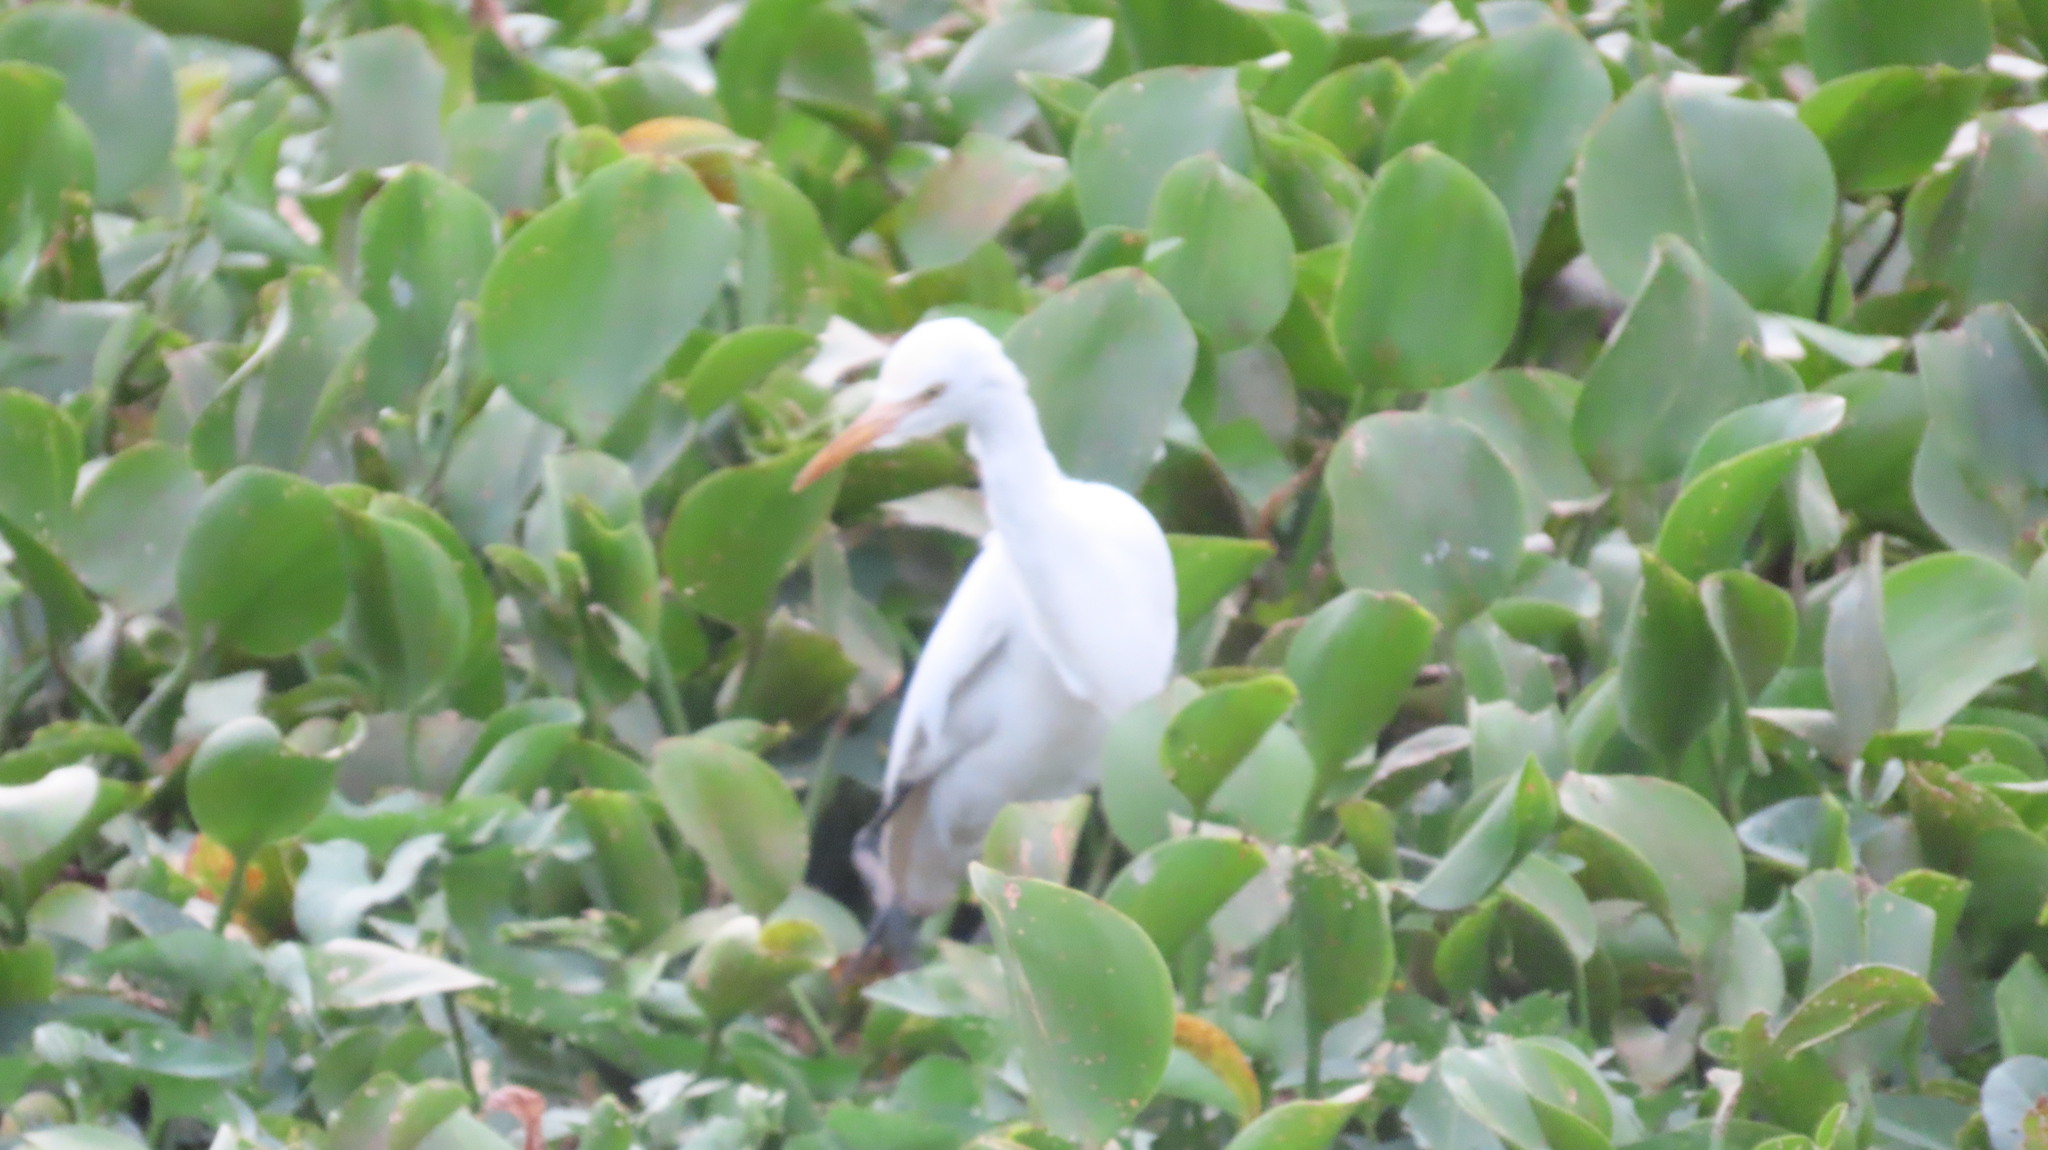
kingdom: Animalia
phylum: Chordata
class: Aves
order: Pelecaniformes
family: Ardeidae
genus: Bubulcus
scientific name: Bubulcus coromandus
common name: Eastern cattle egret
